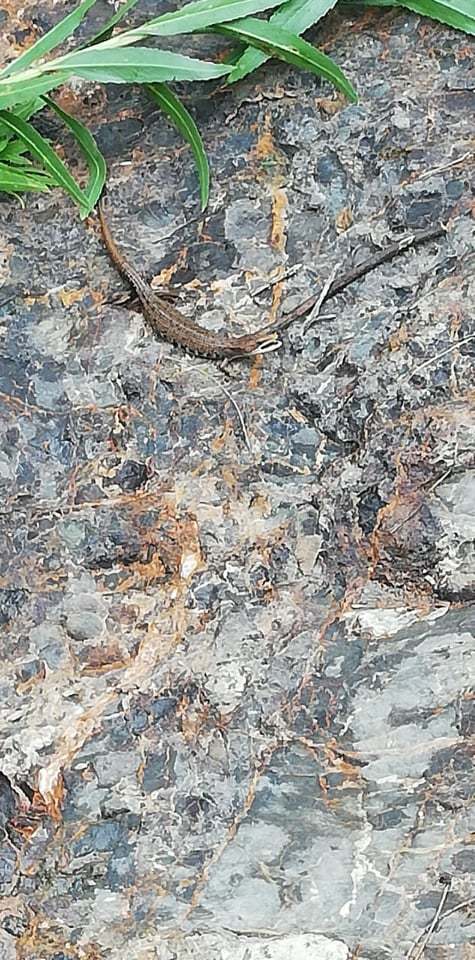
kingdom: Animalia
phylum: Chordata
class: Squamata
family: Anguidae
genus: Gerrhonotus
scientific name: Gerrhonotus liocephalus
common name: Texas alligator lizard
